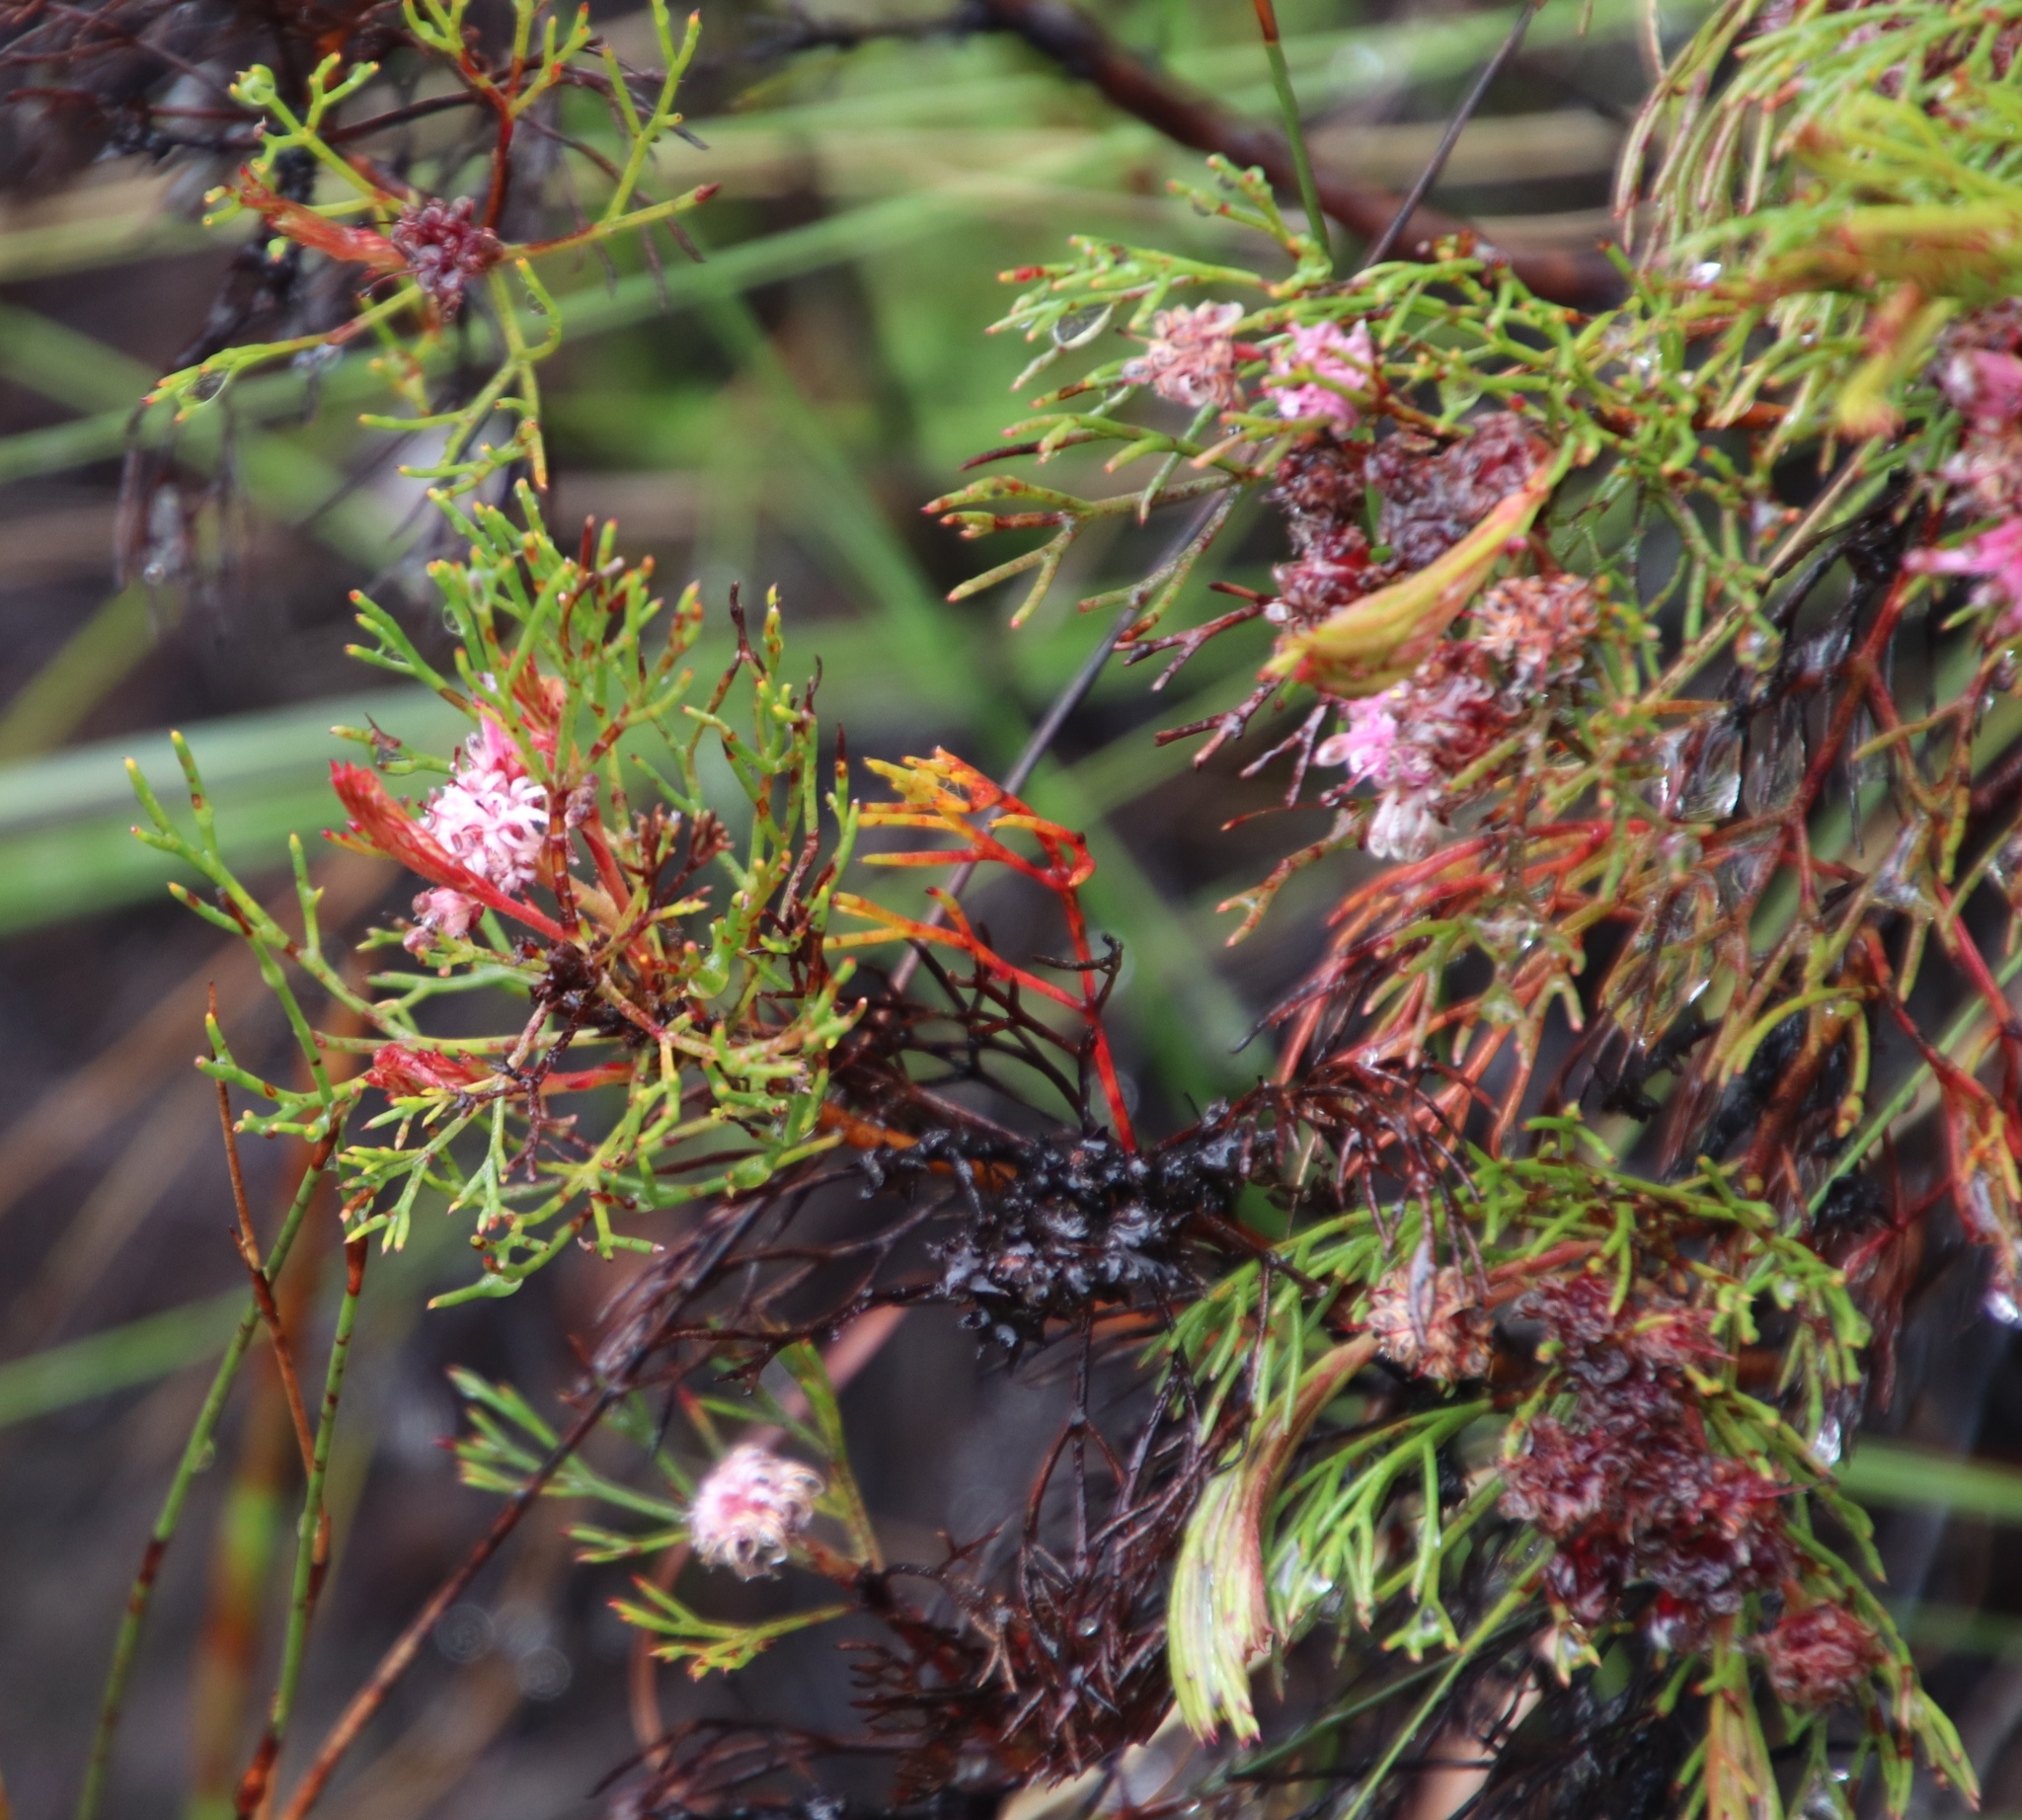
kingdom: Plantae
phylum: Tracheophyta
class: Magnoliopsida
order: Proteales
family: Proteaceae
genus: Serruria
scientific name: Serruria fasciflora
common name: Common pin spiderhead
